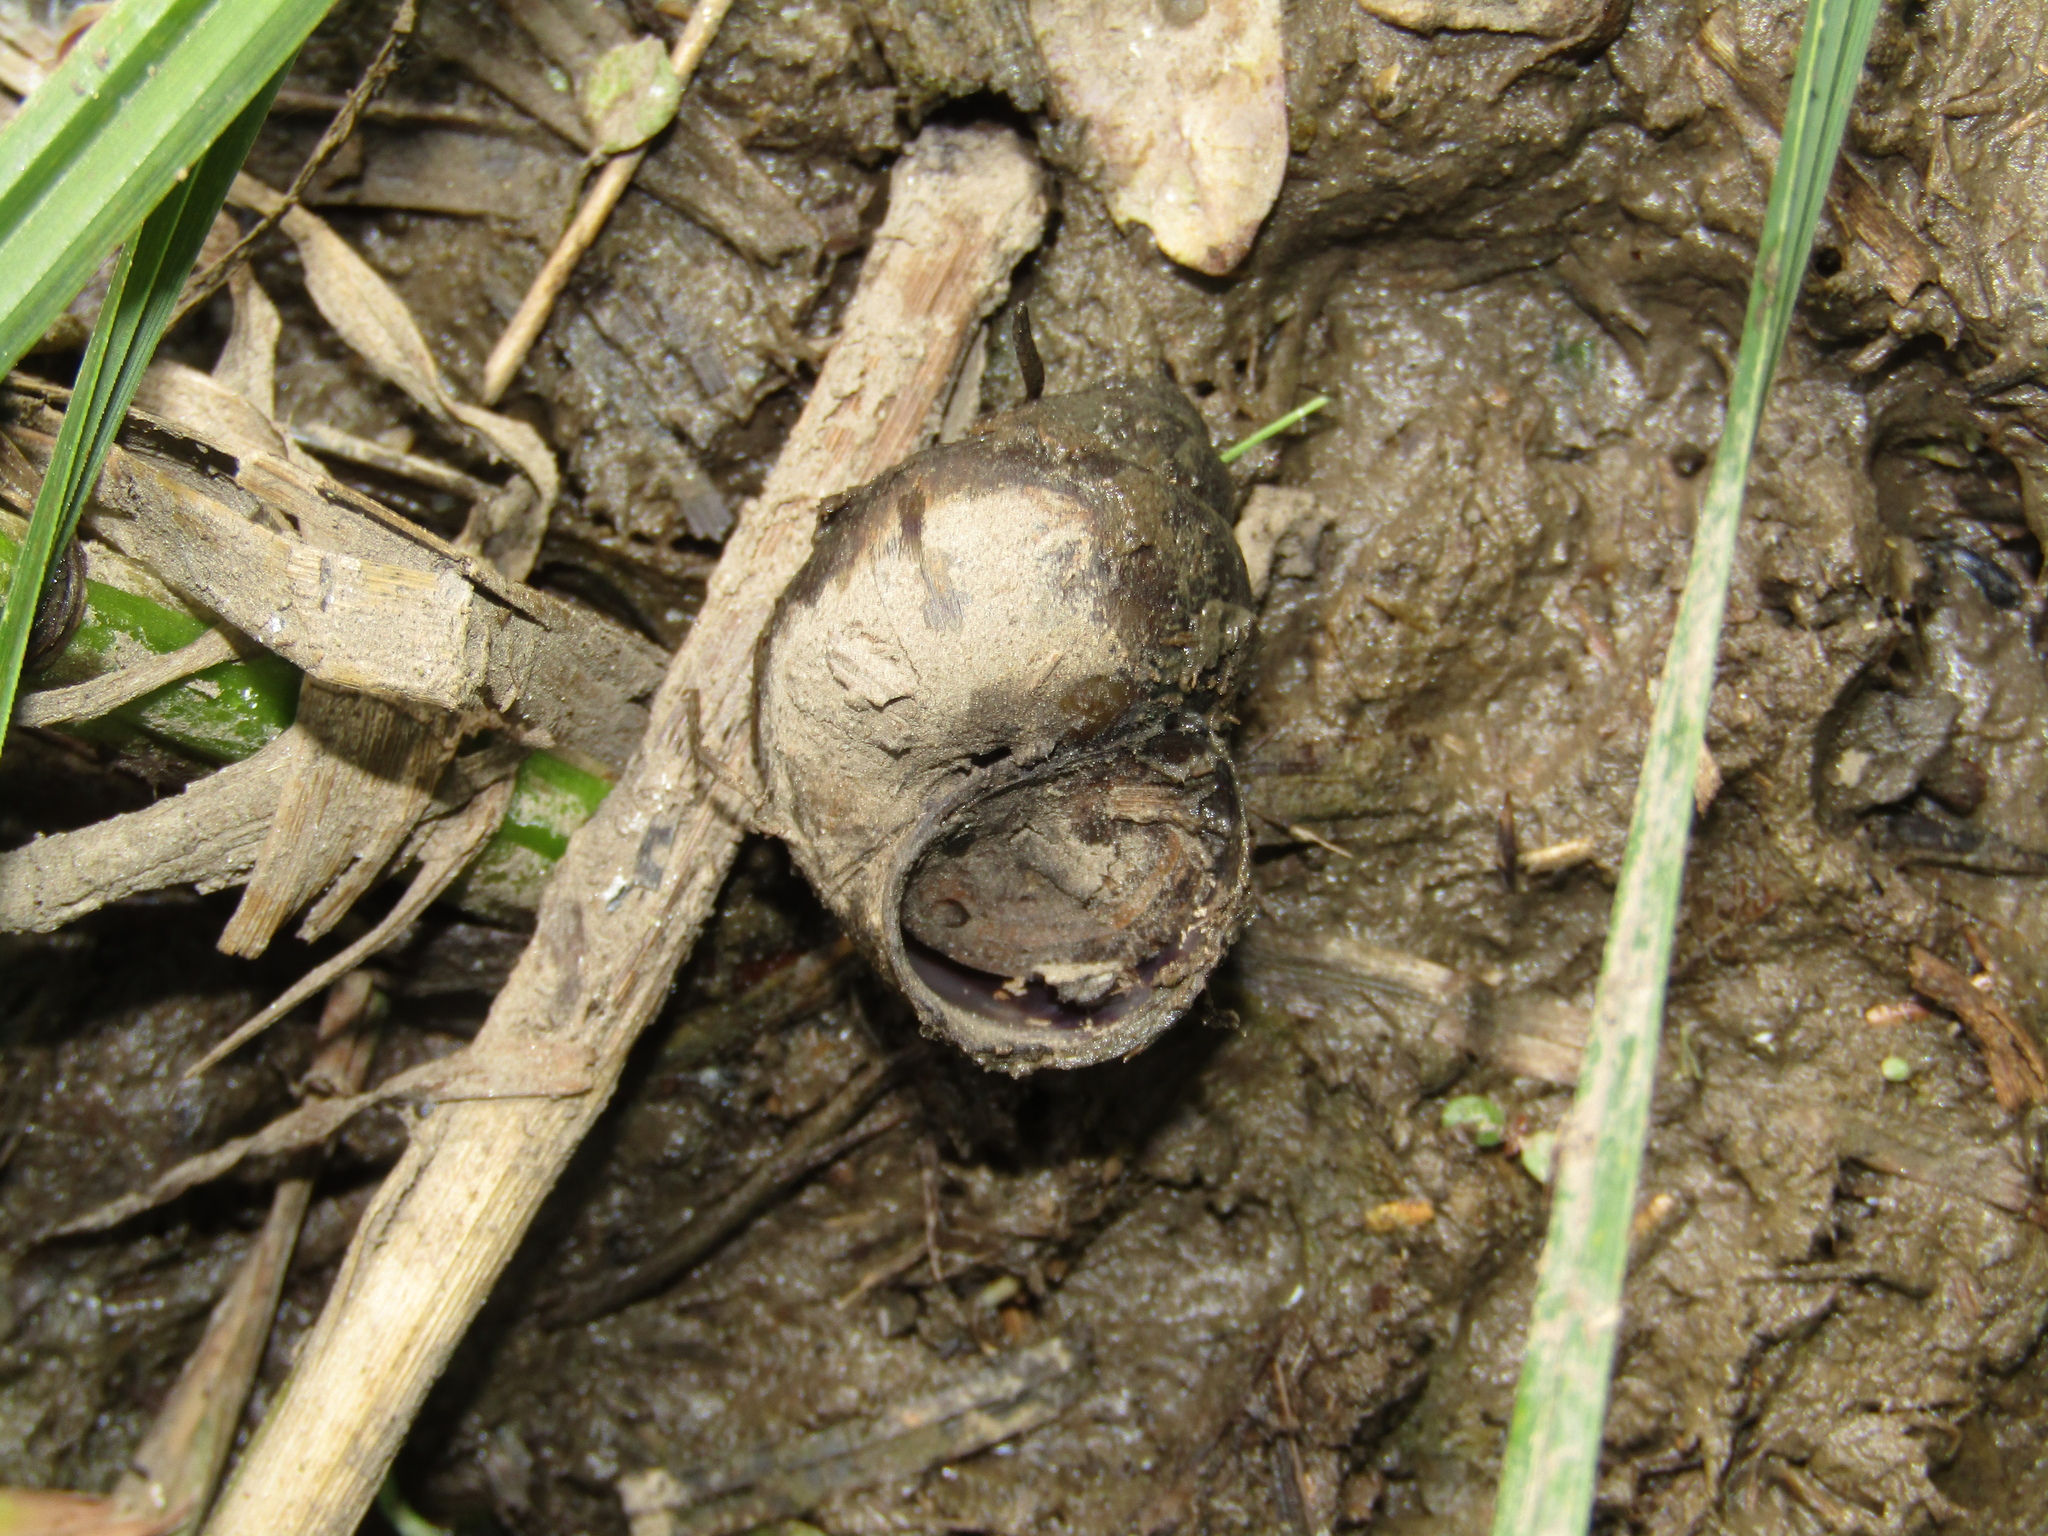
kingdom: Animalia
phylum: Mollusca
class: Gastropoda
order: Architaenioglossa
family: Viviparidae
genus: Viviparus
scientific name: Viviparus viviparus
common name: River snail
